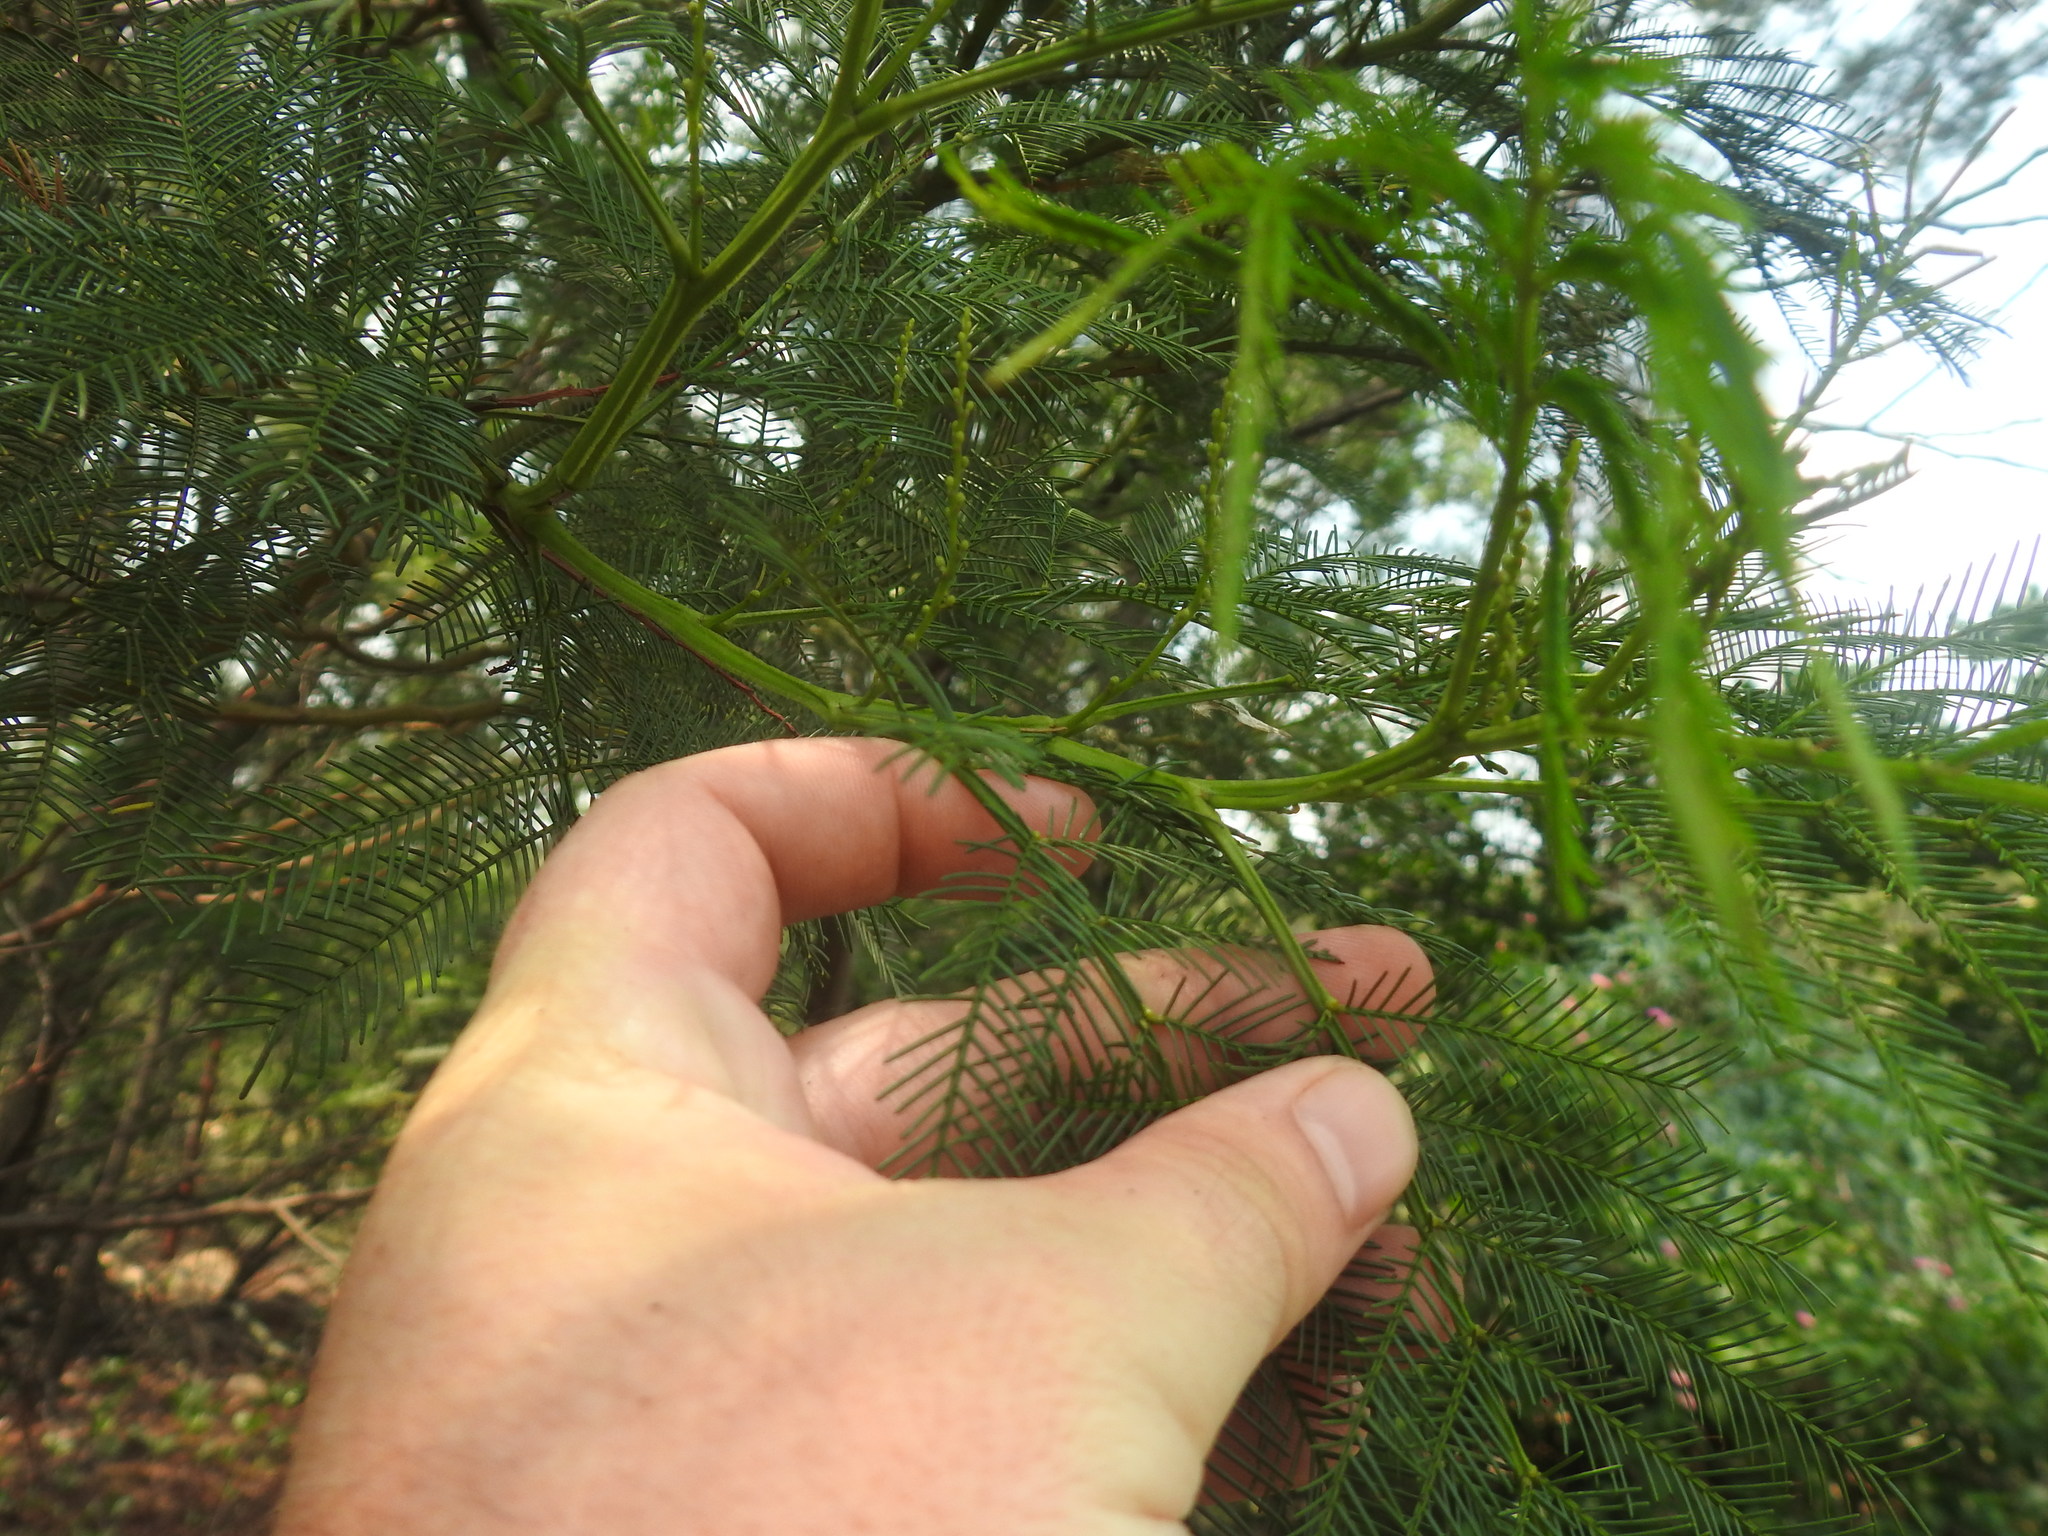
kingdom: Plantae
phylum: Tracheophyta
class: Magnoliopsida
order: Fabales
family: Fabaceae
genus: Acacia
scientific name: Acacia decurrens
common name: Green wattle
